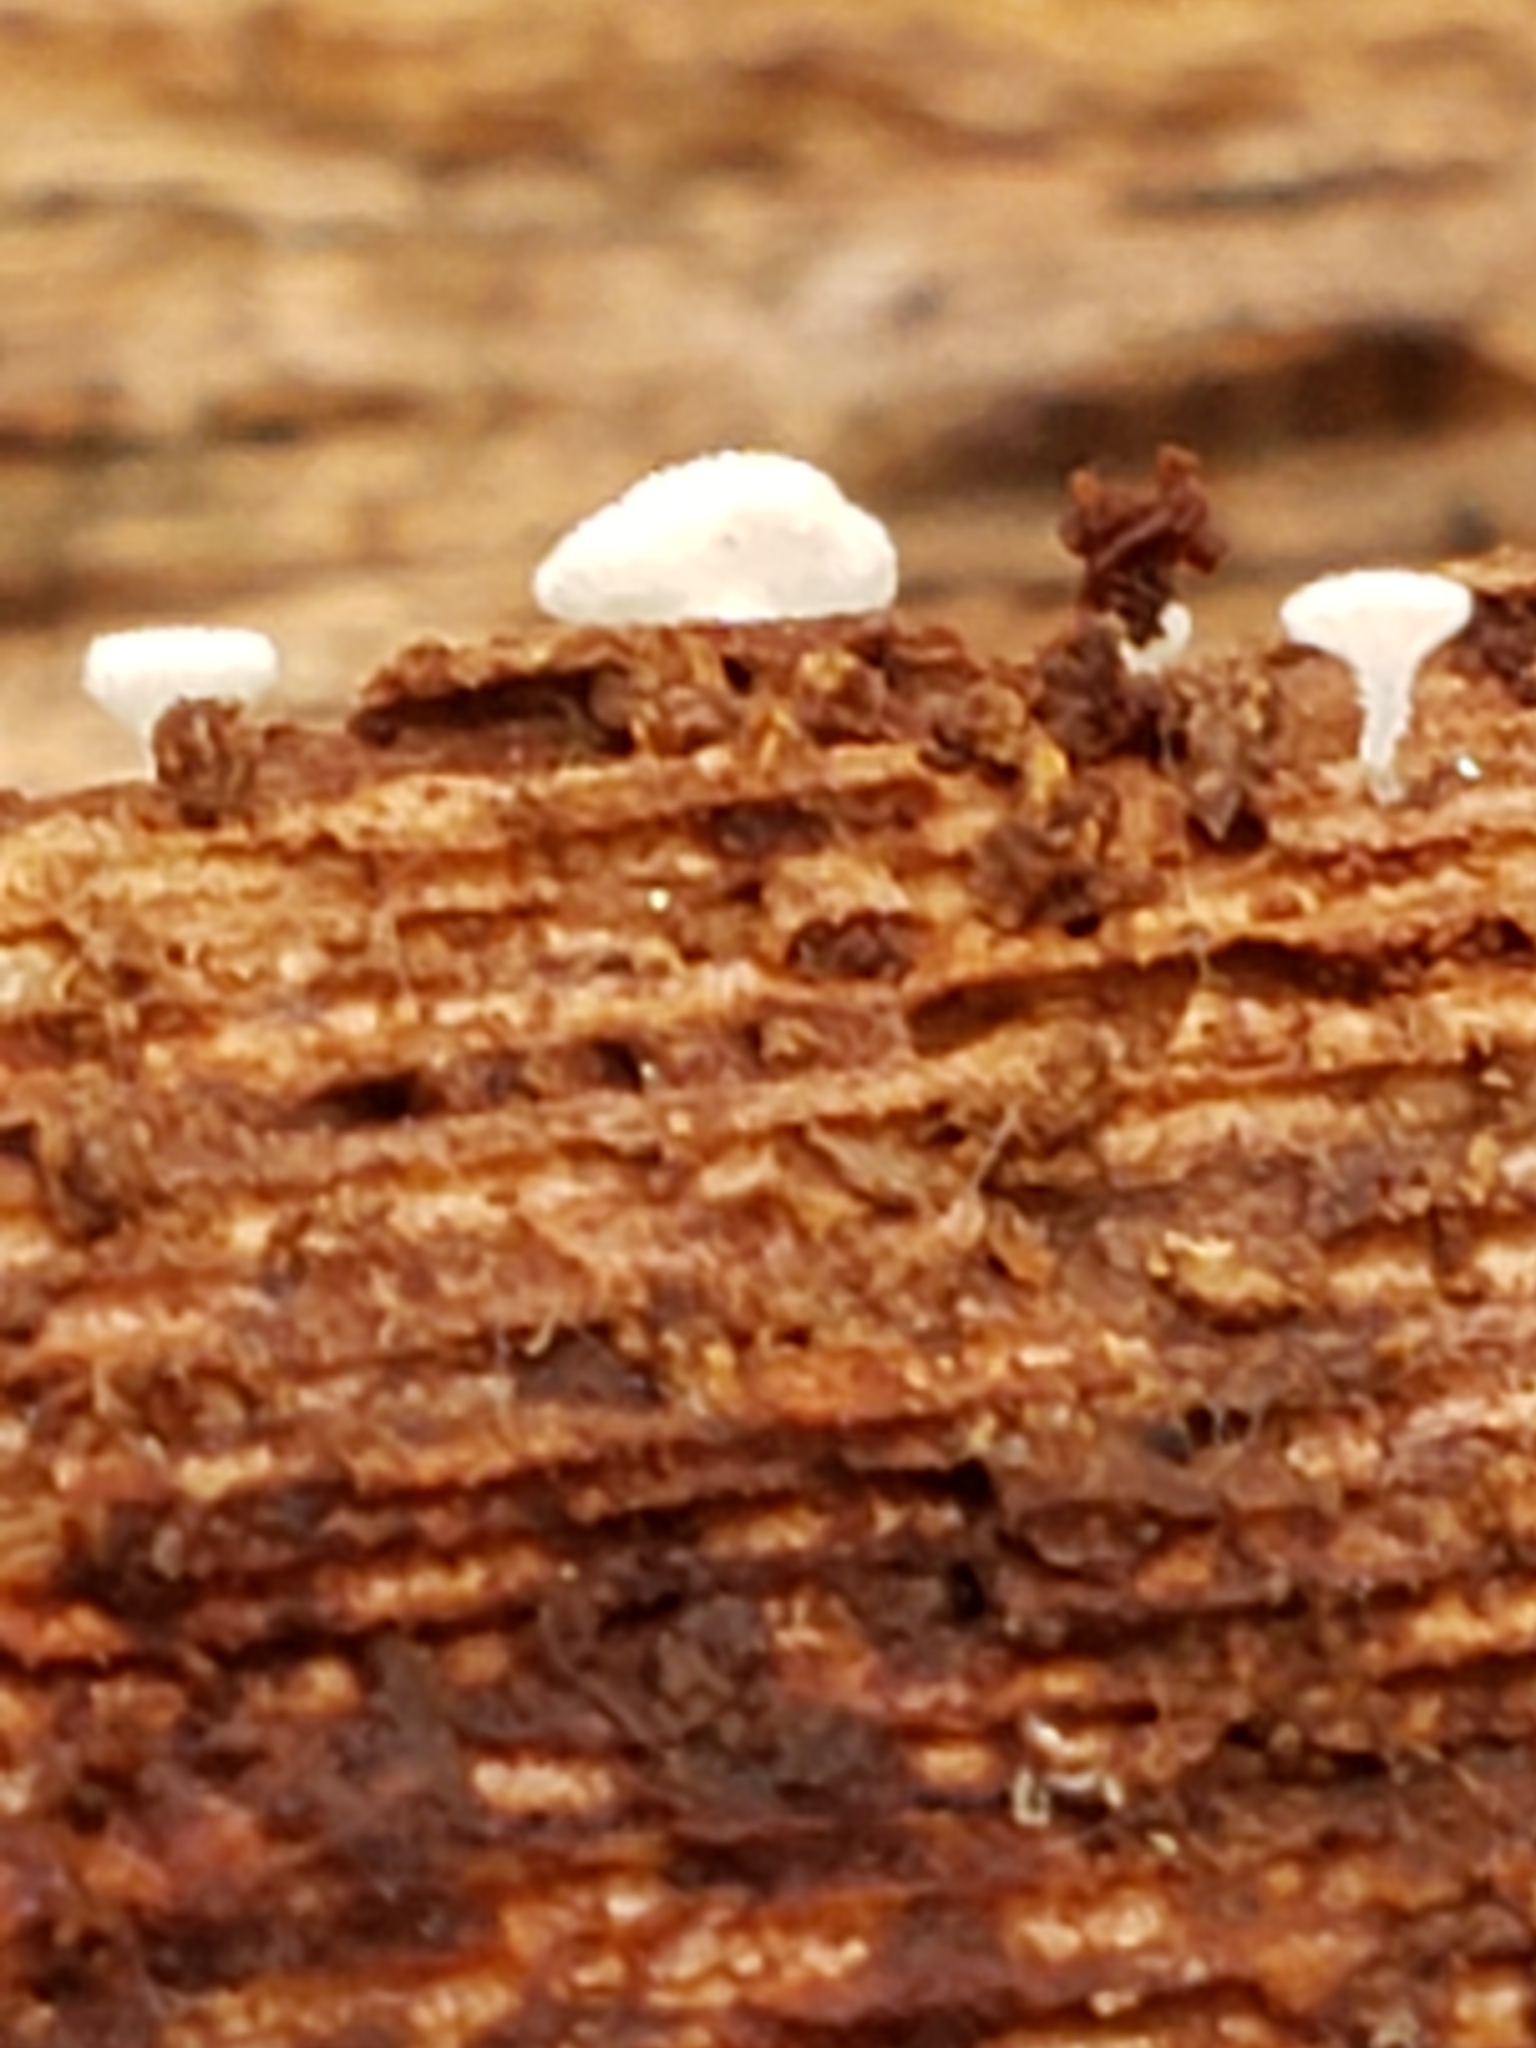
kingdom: Fungi
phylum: Ascomycota
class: Leotiomycetes
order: Helotiales
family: Lachnaceae
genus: Lachnum
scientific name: Lachnum virgineum
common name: Snowy disco
